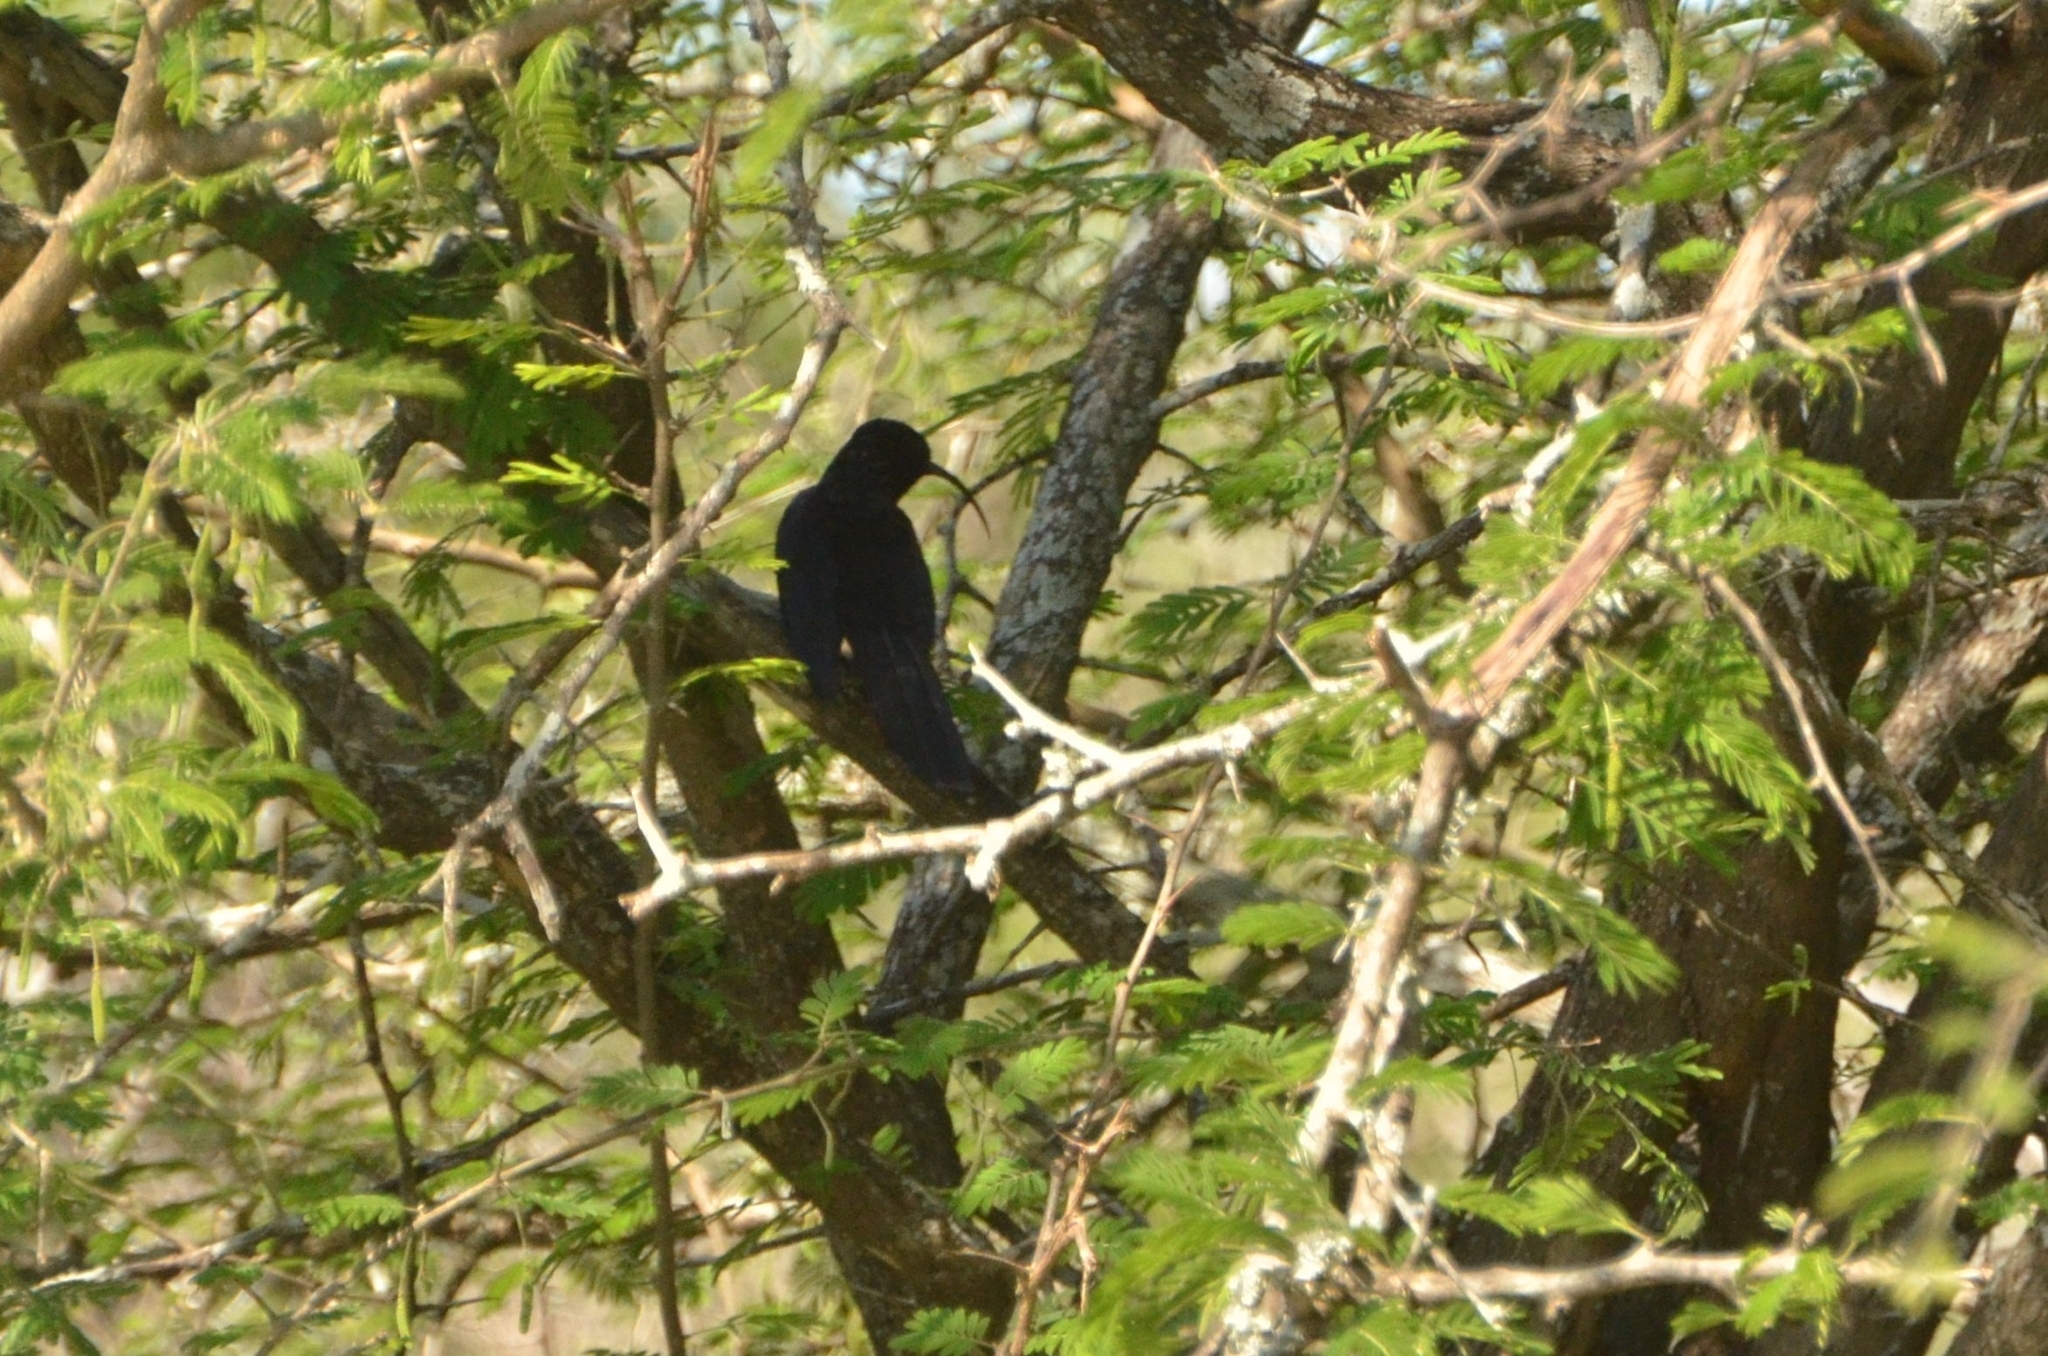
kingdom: Animalia
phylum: Chordata
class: Aves
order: Bucerotiformes
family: Phoeniculidae
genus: Rhinopomastus
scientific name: Rhinopomastus cyanomelas
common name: Common scimitarbill
